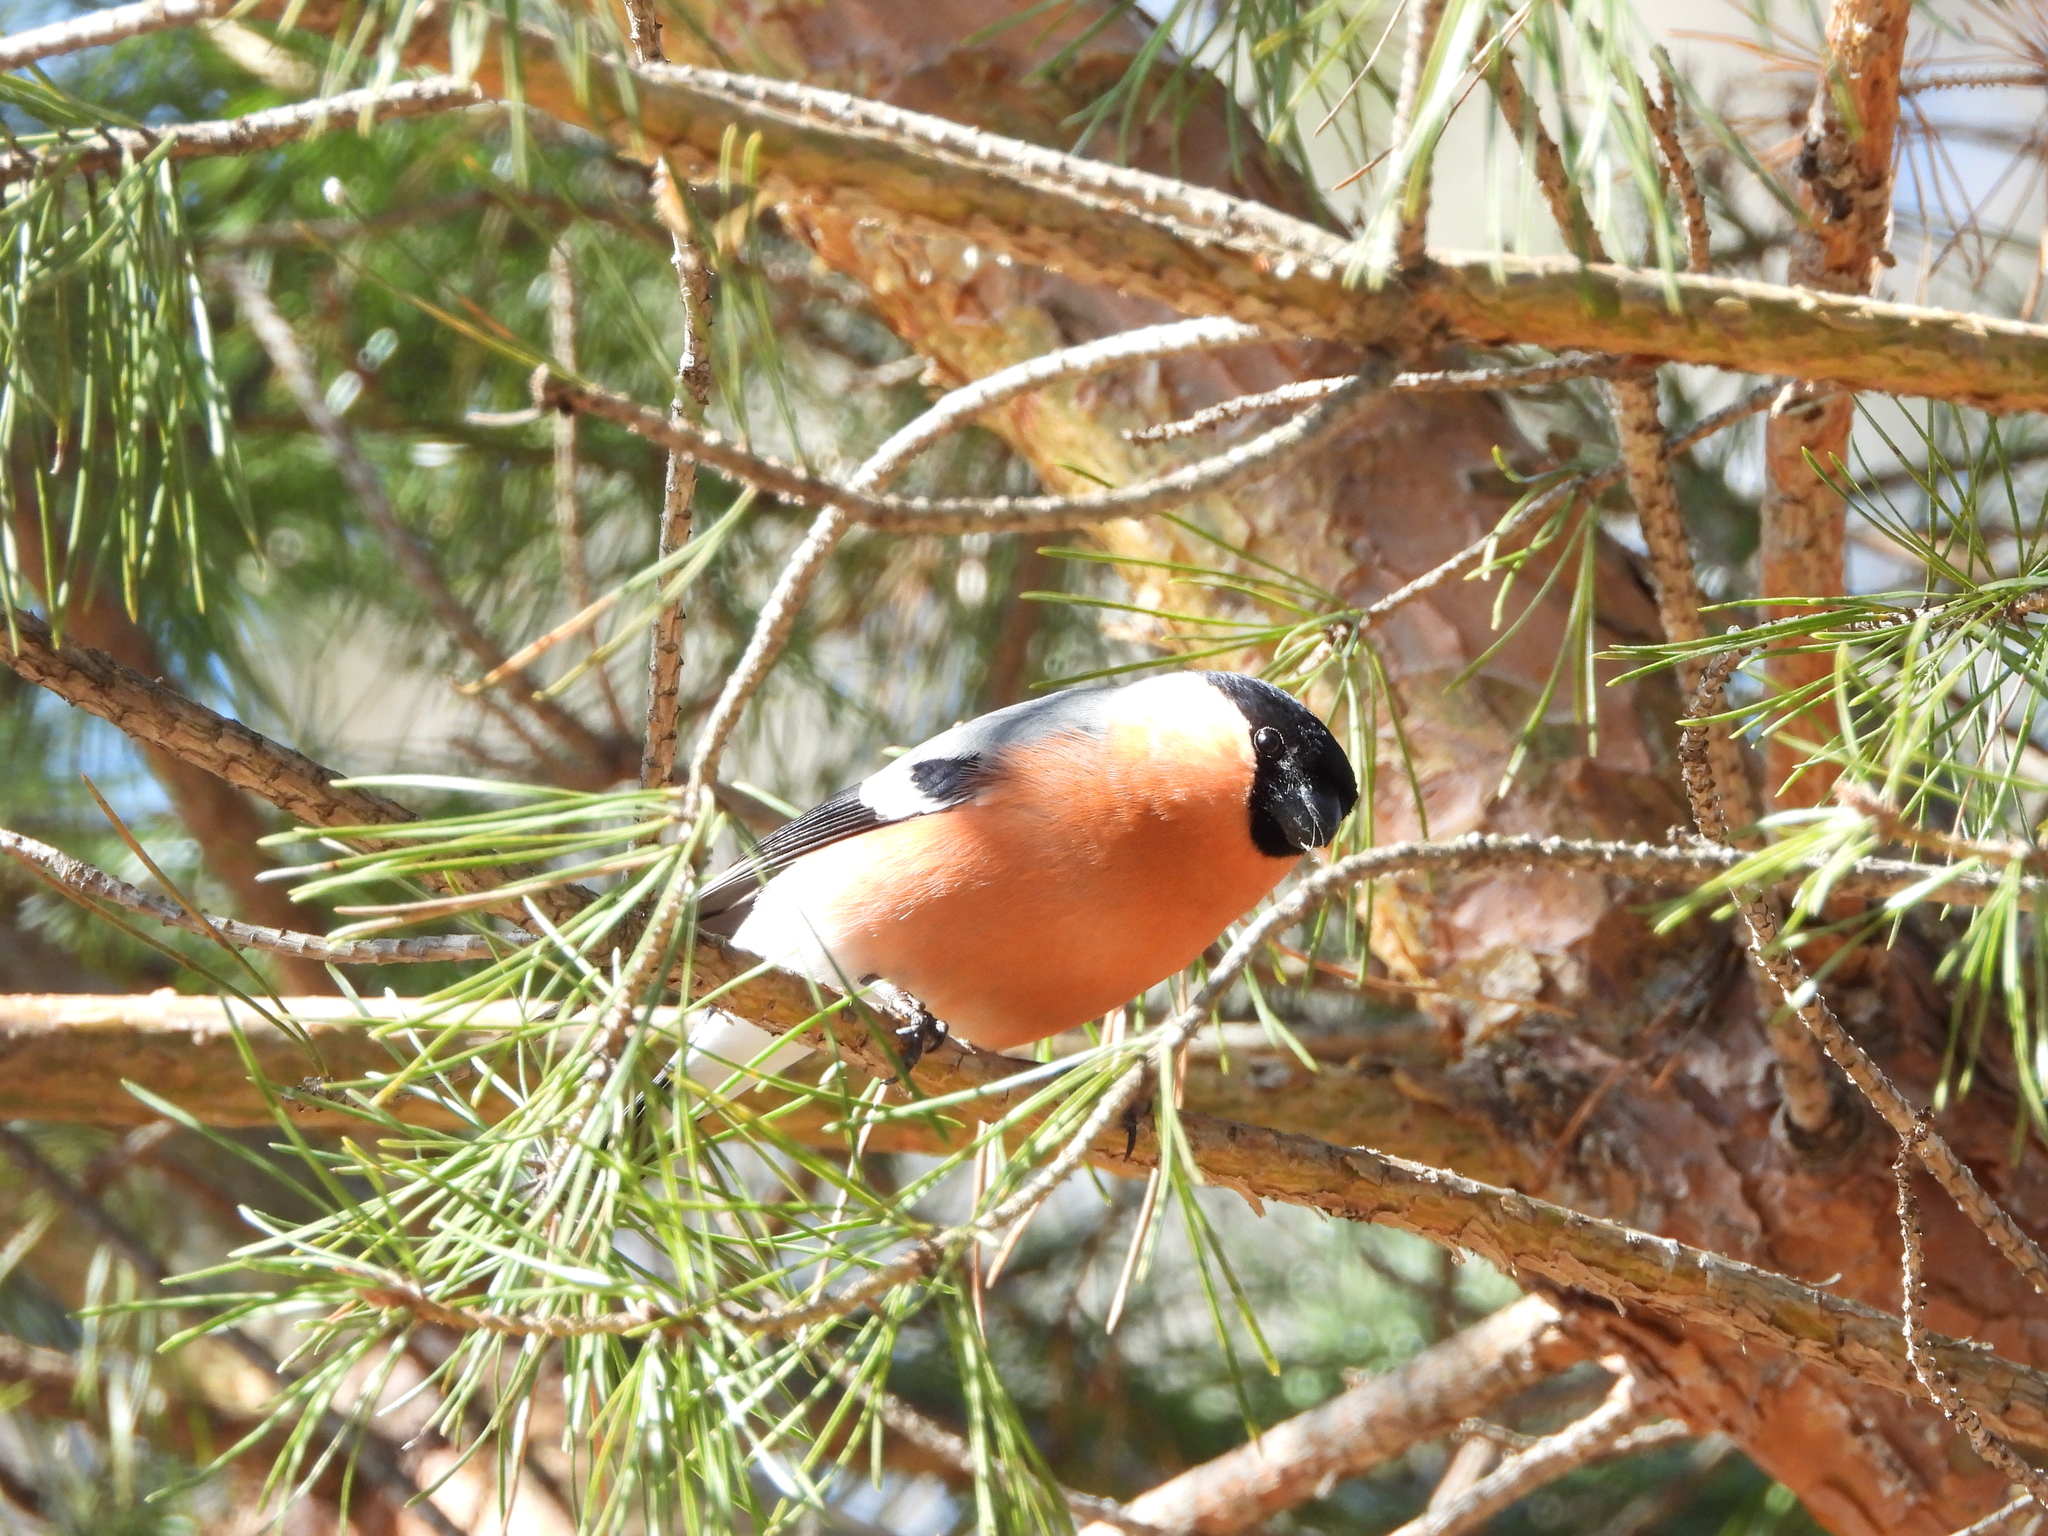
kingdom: Animalia
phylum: Chordata
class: Aves
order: Passeriformes
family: Fringillidae
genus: Pyrrhula
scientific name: Pyrrhula pyrrhula
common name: Eurasian bullfinch
